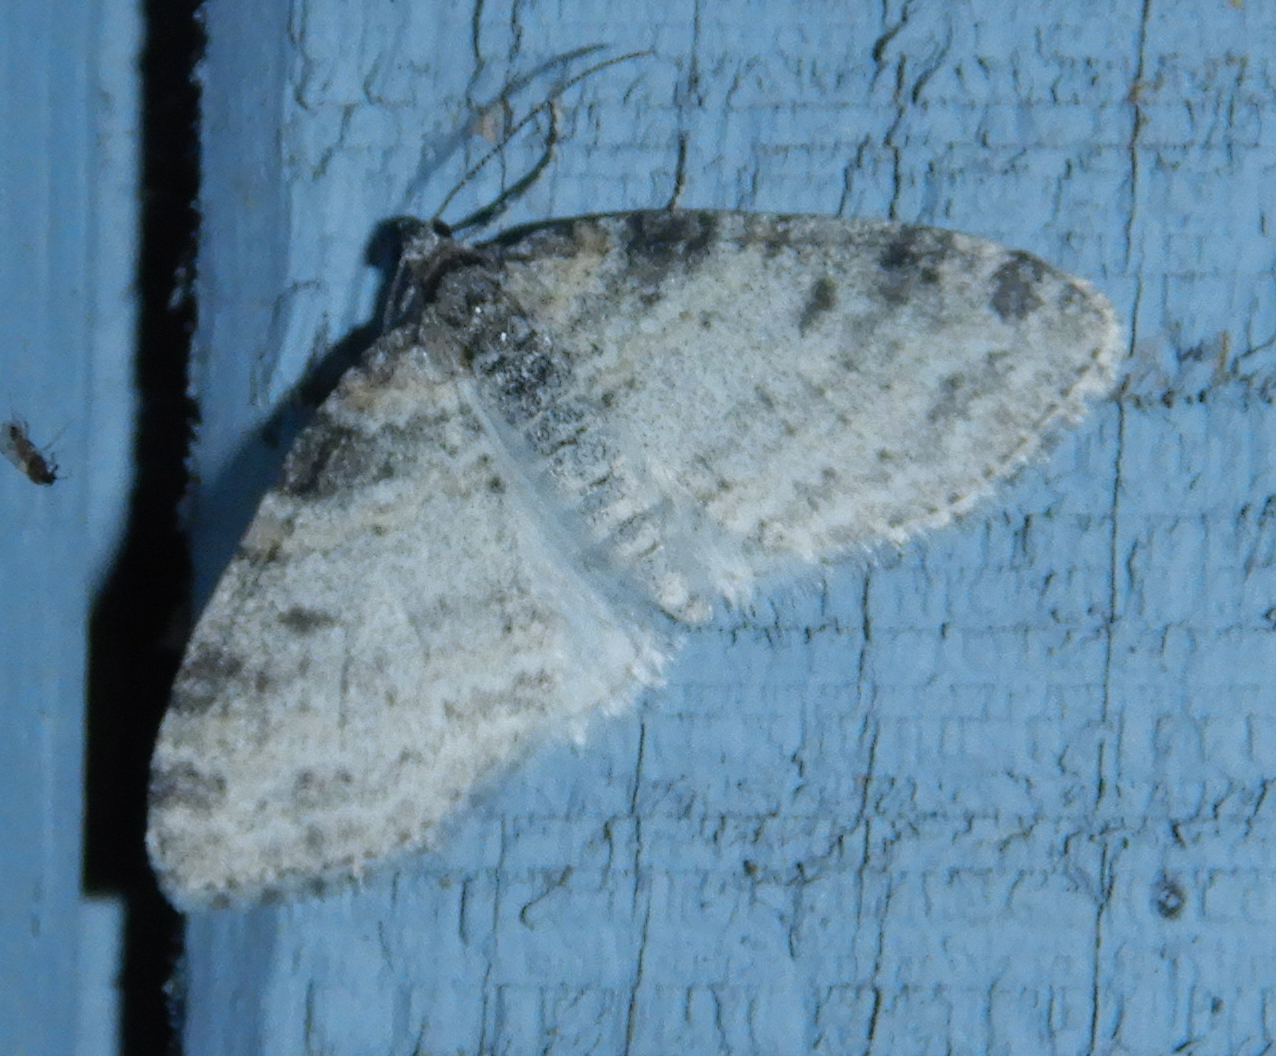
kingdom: Animalia
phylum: Arthropoda
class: Insecta
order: Lepidoptera
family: Geometridae
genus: Lobophora
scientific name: Lobophora nivigerata
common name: Powdered bigwing
